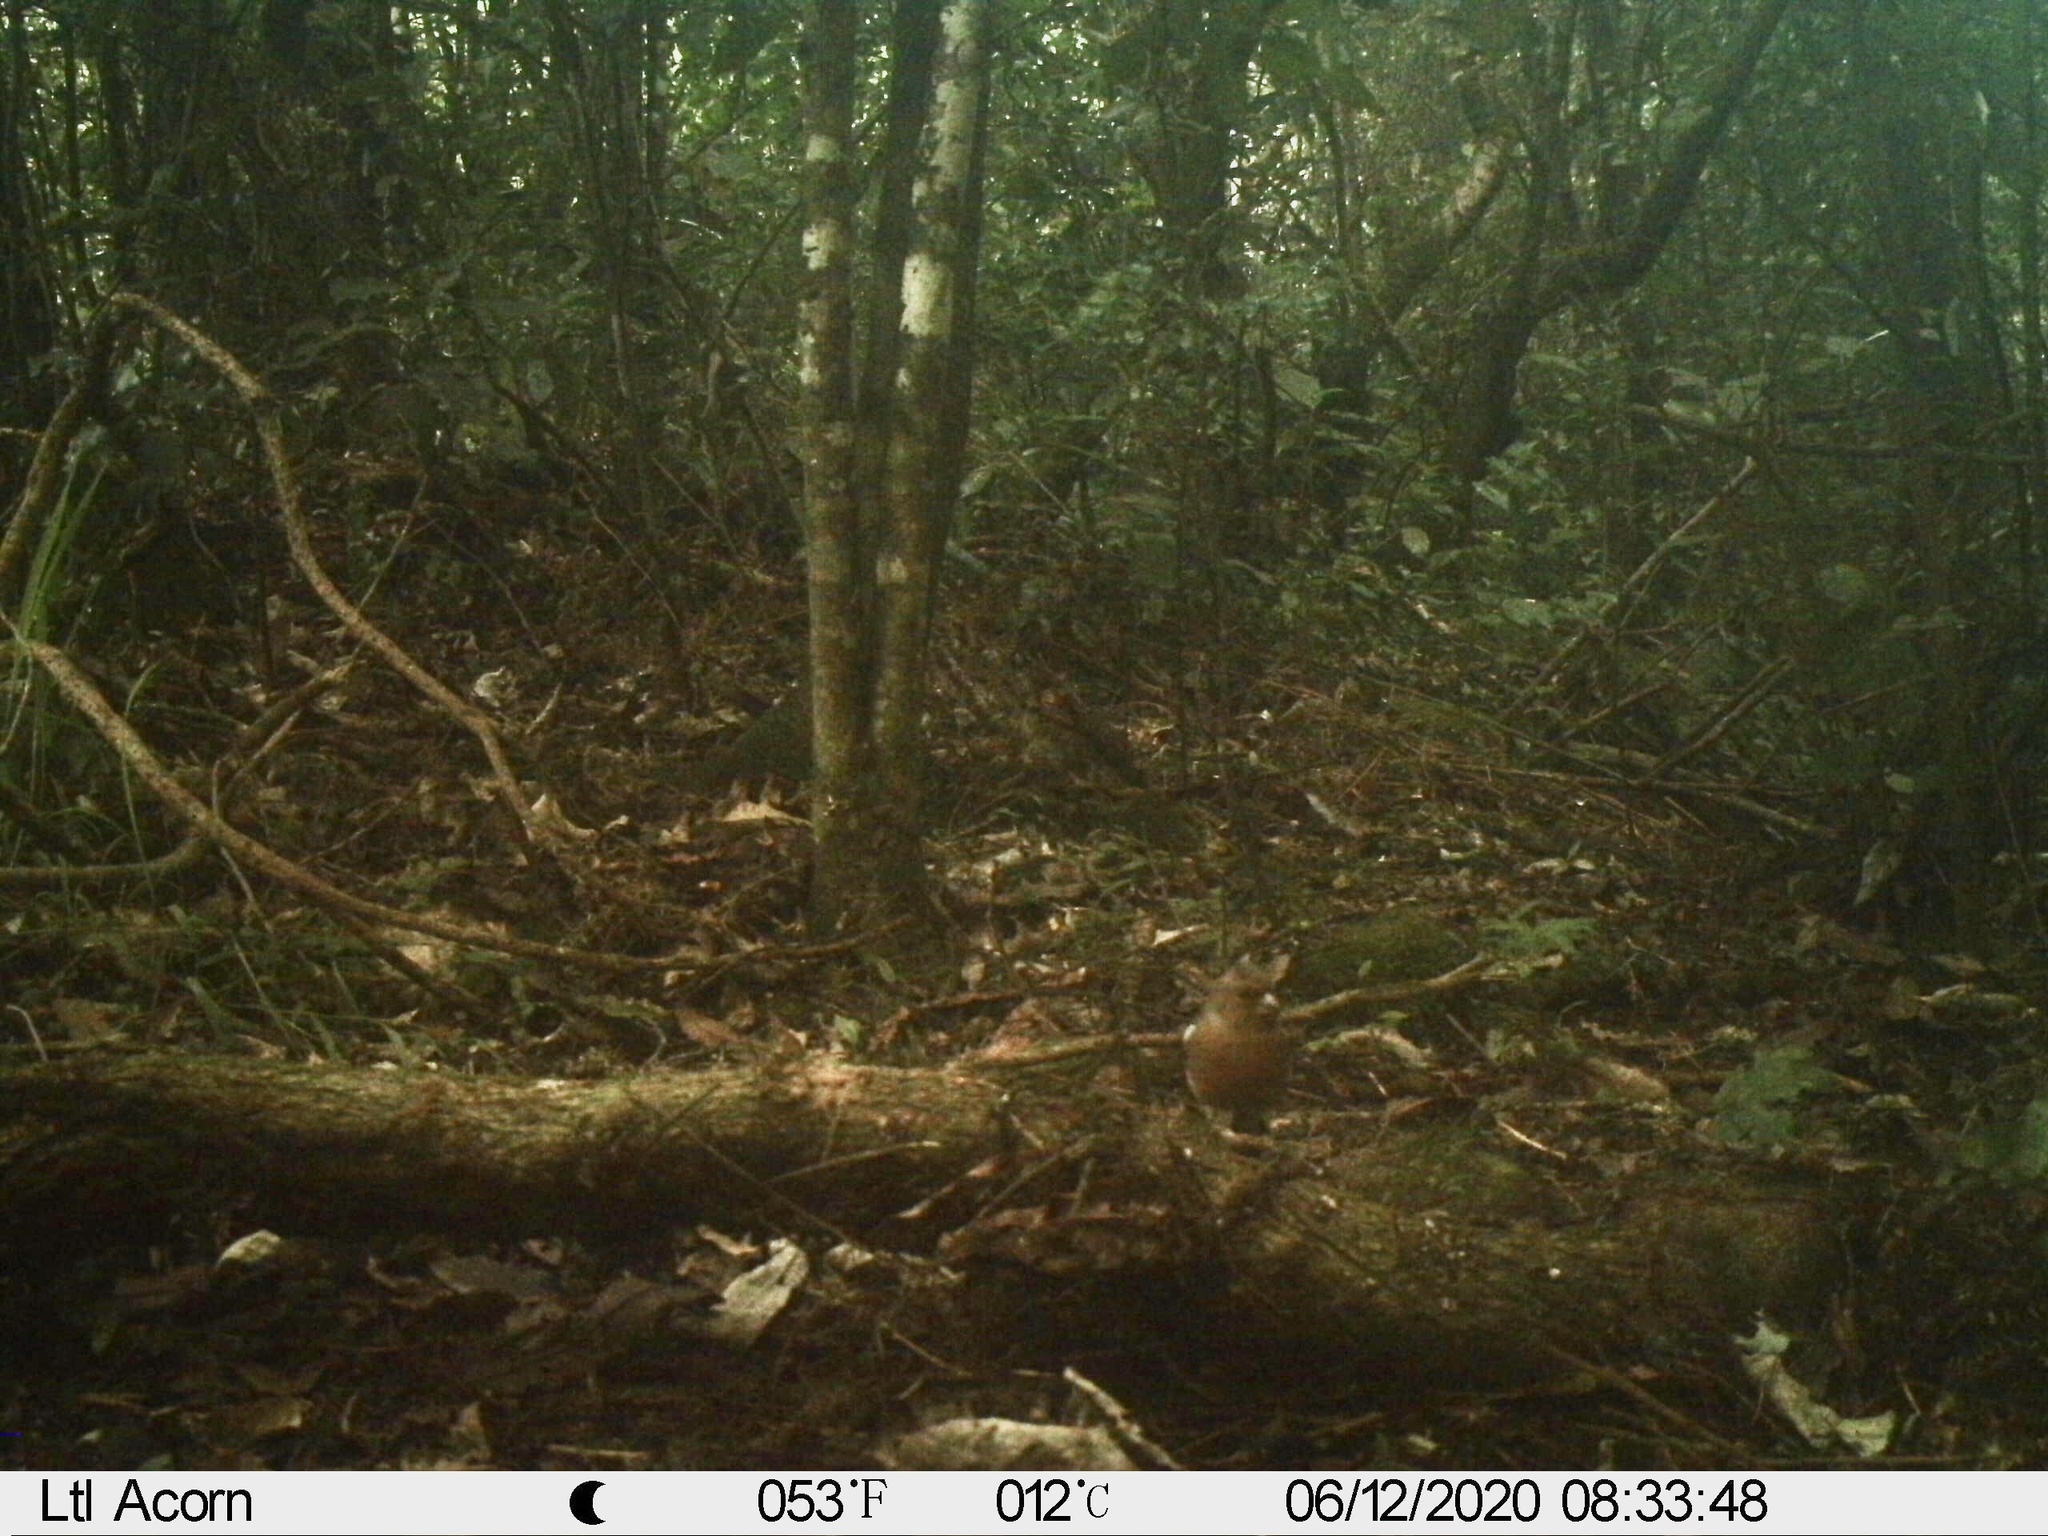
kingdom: Animalia
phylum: Chordata
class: Aves
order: Passeriformes
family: Fringillidae
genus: Fringilla
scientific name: Fringilla coelebs
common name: Common chaffinch
